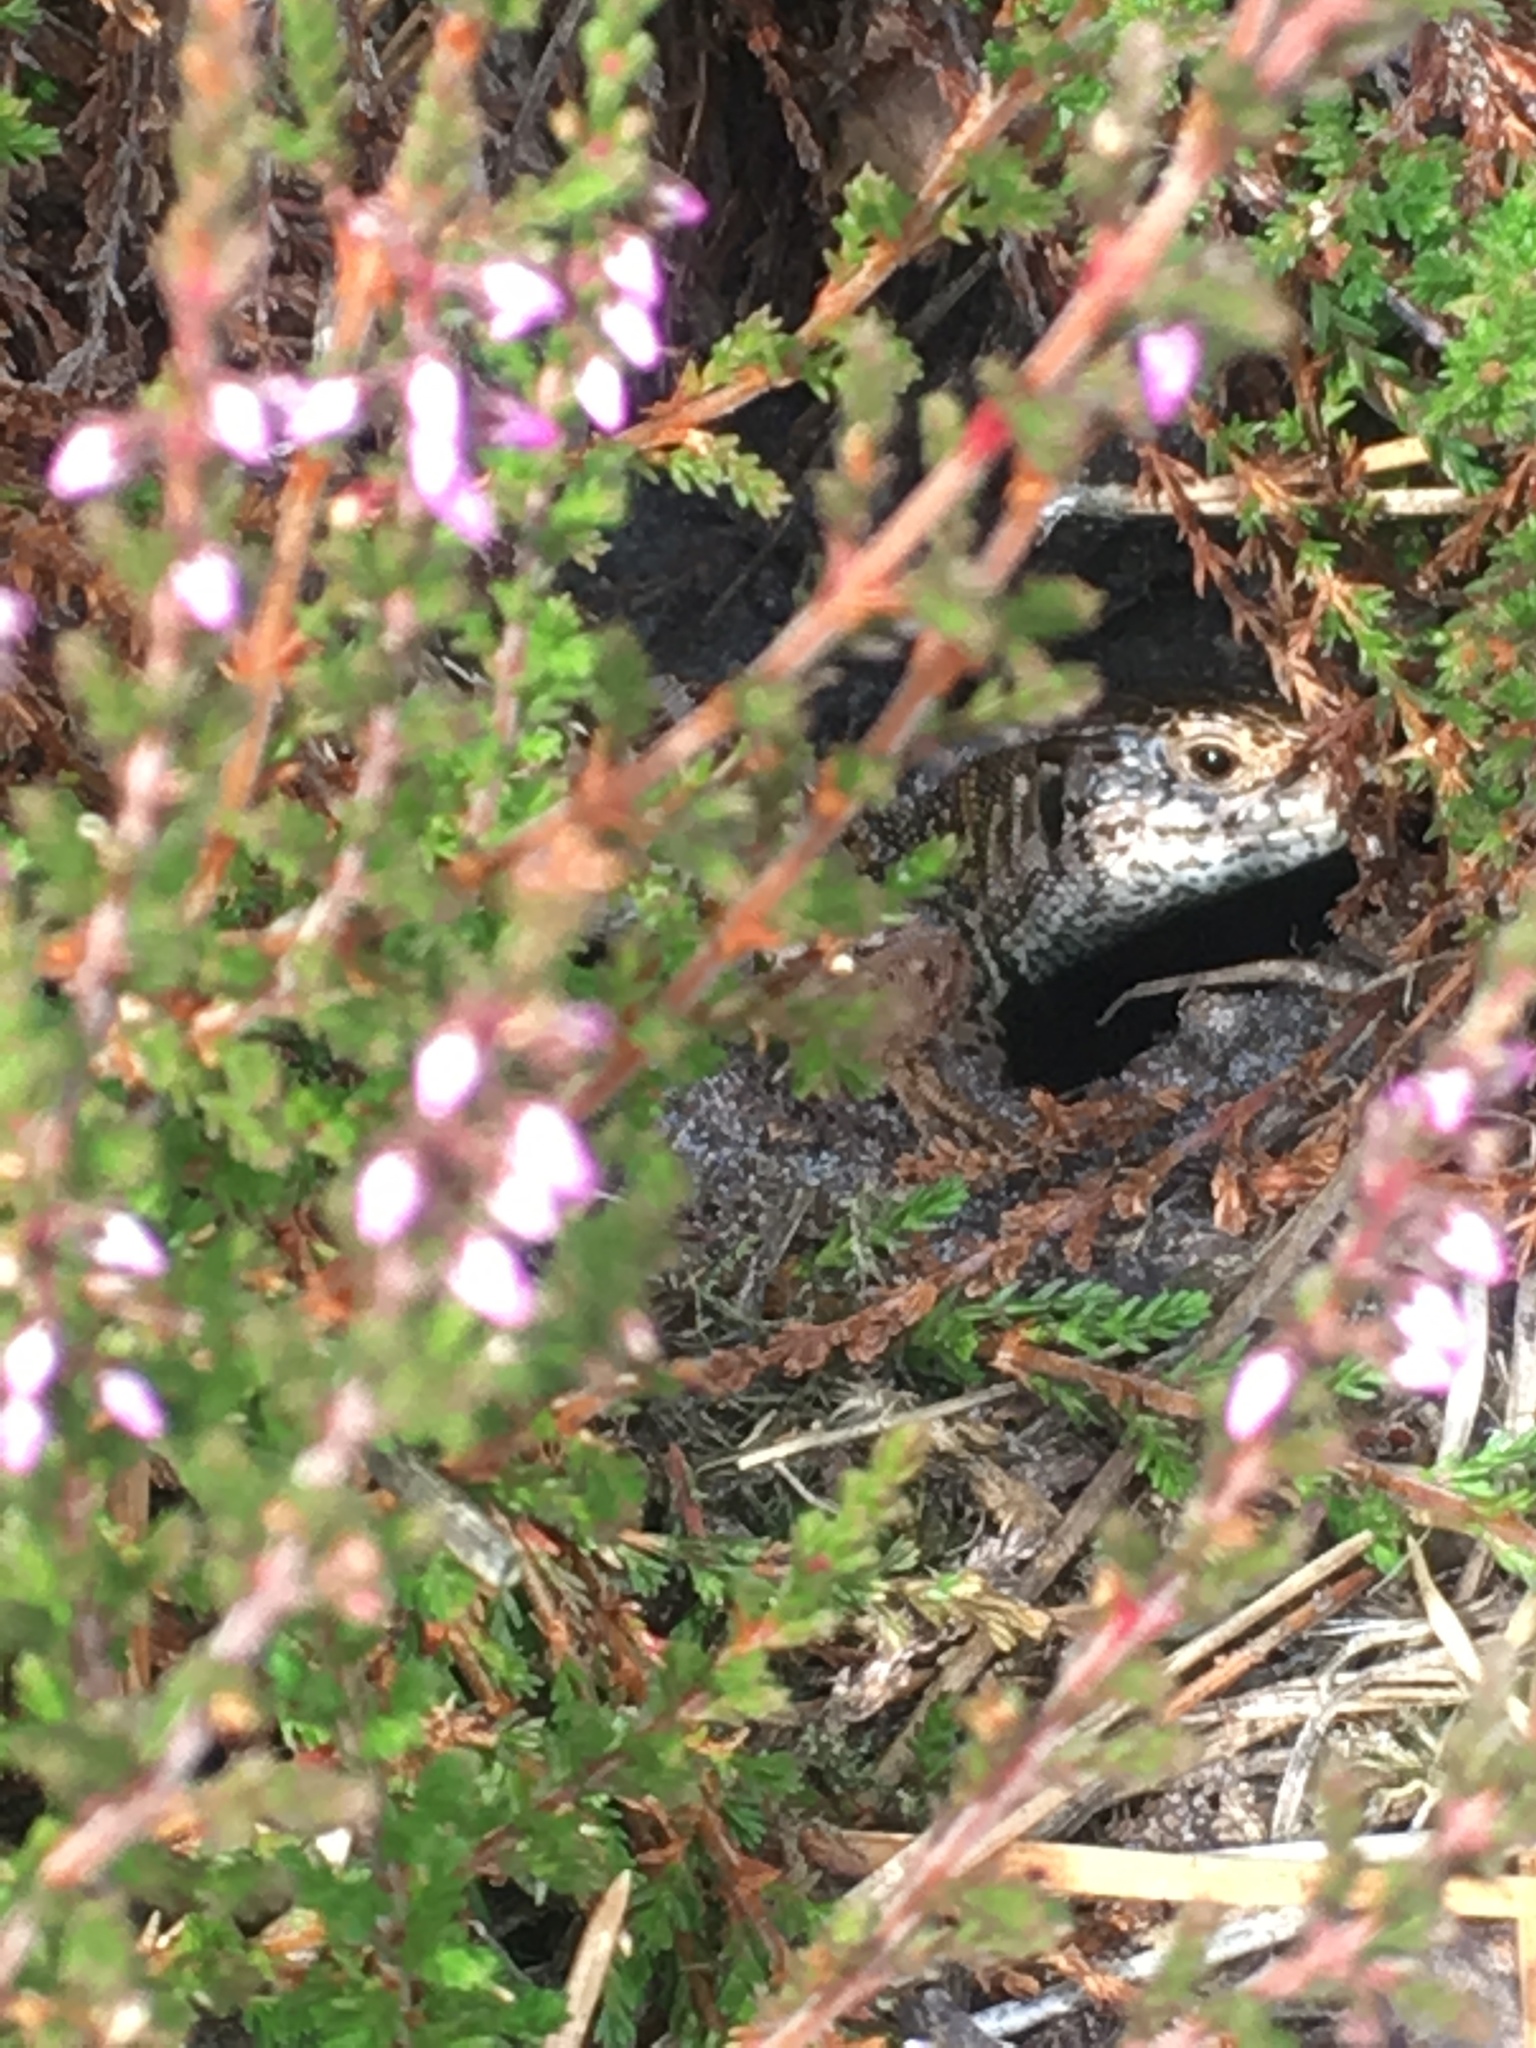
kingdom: Animalia
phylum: Chordata
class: Squamata
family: Lacertidae
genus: Lacerta
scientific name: Lacerta agilis
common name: Sand lizard
